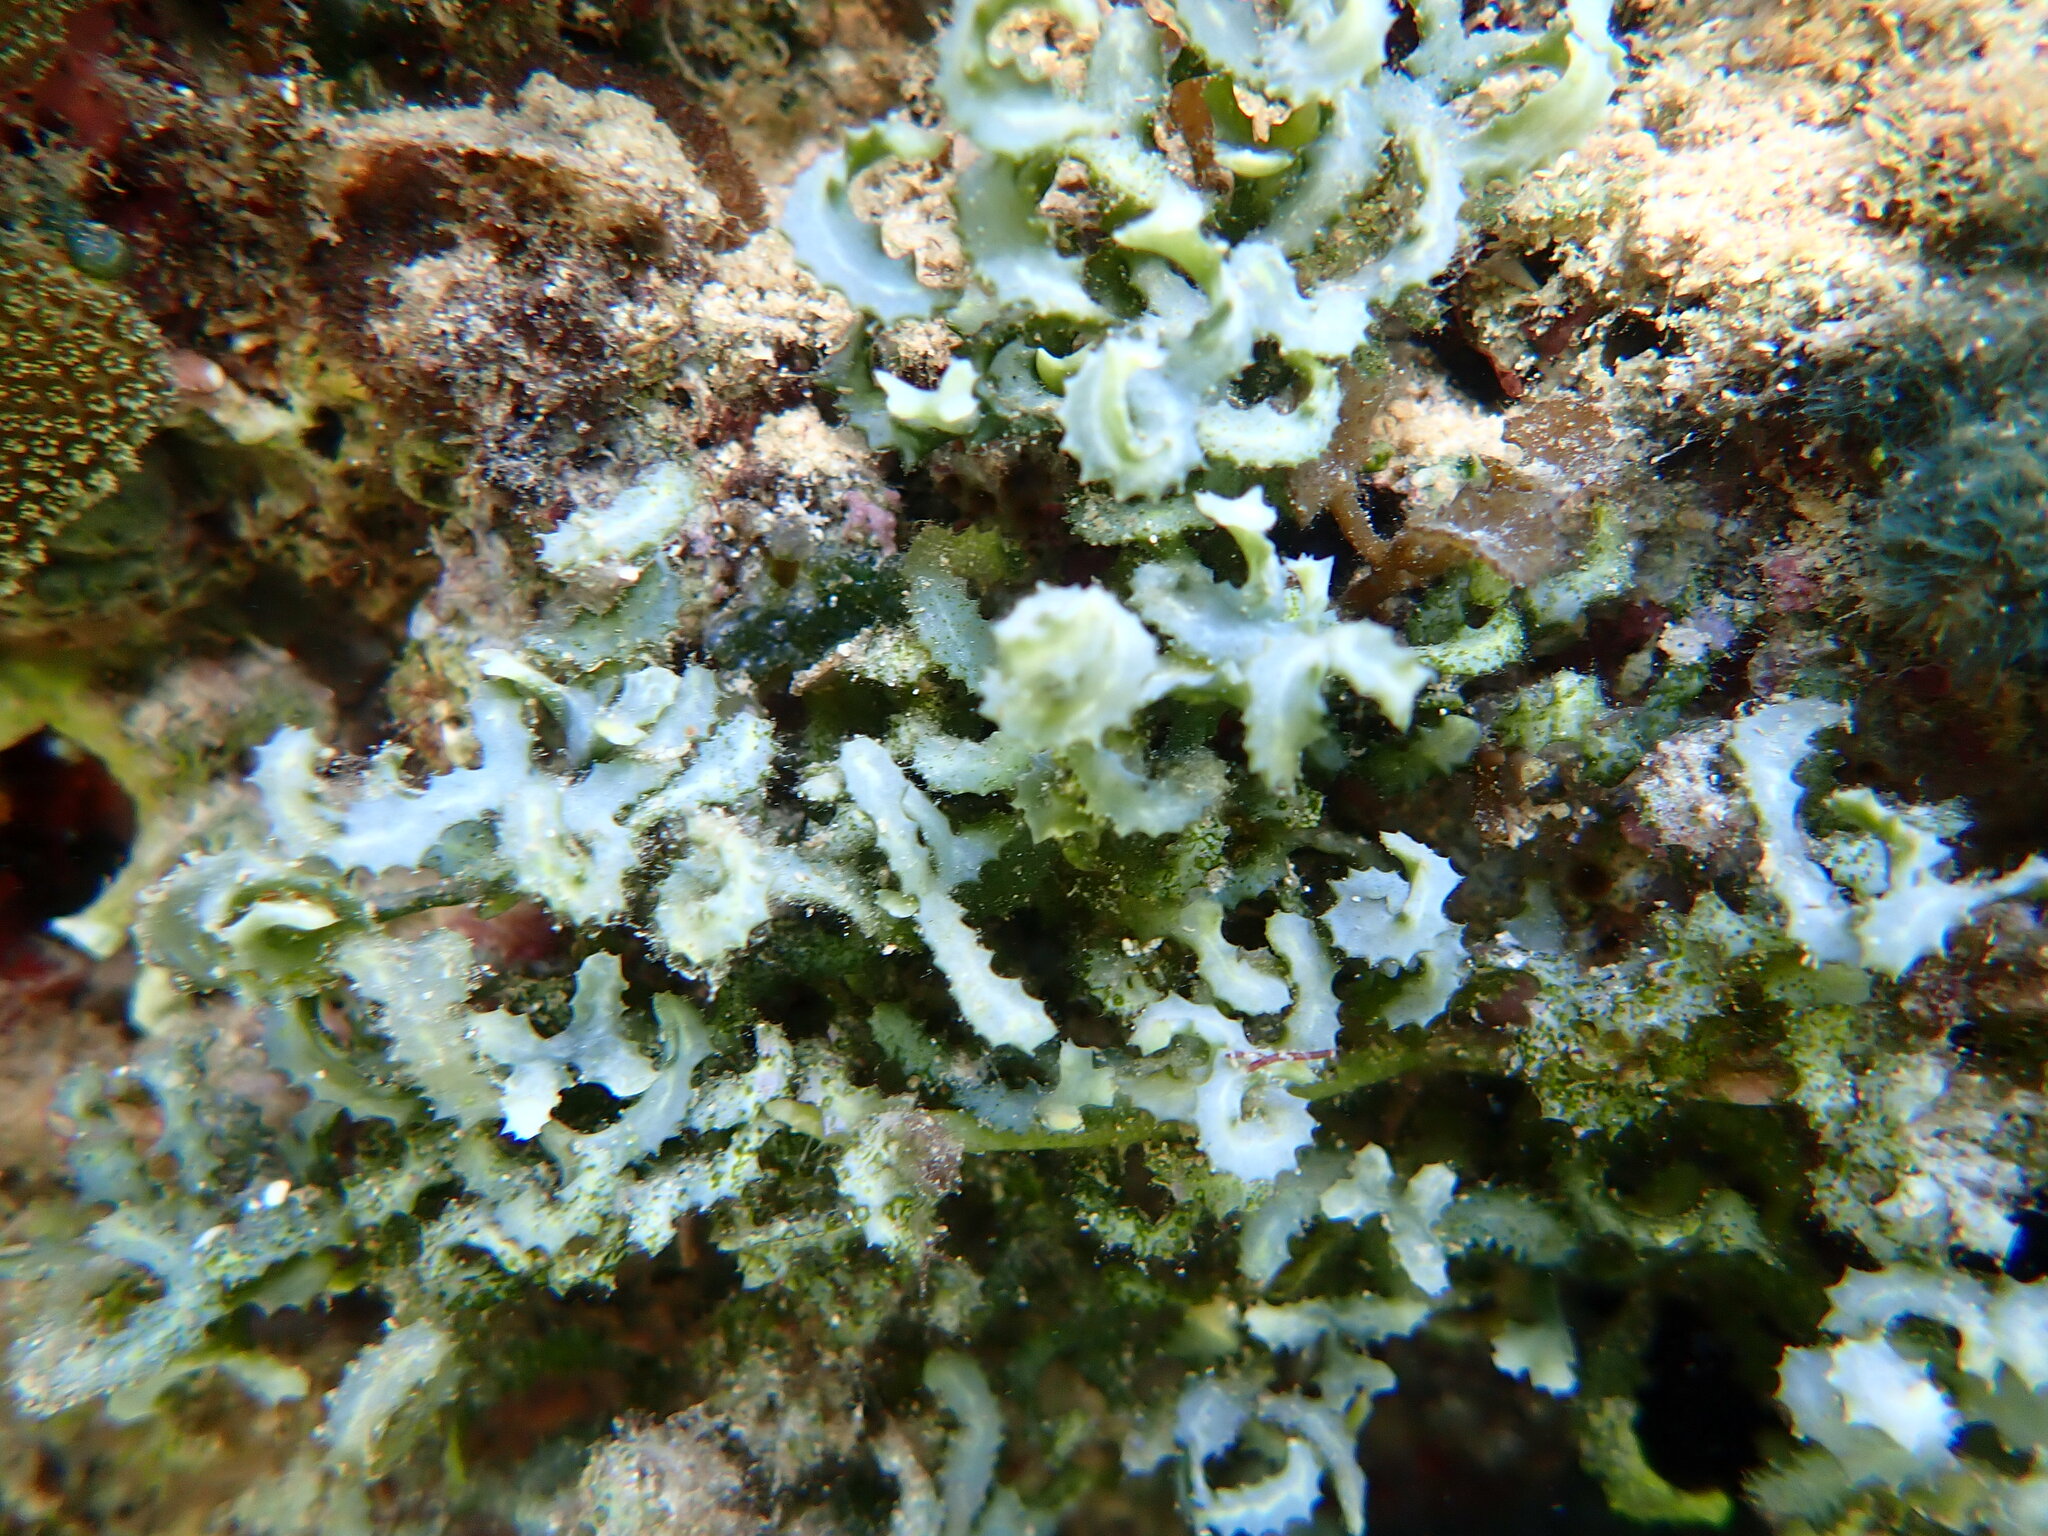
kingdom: Plantae
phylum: Chlorophyta
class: Ulvophyceae
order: Bryopsidales
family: Caulerpaceae
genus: Caulerpa
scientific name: Caulerpa serrulata
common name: Saw-blade algae
